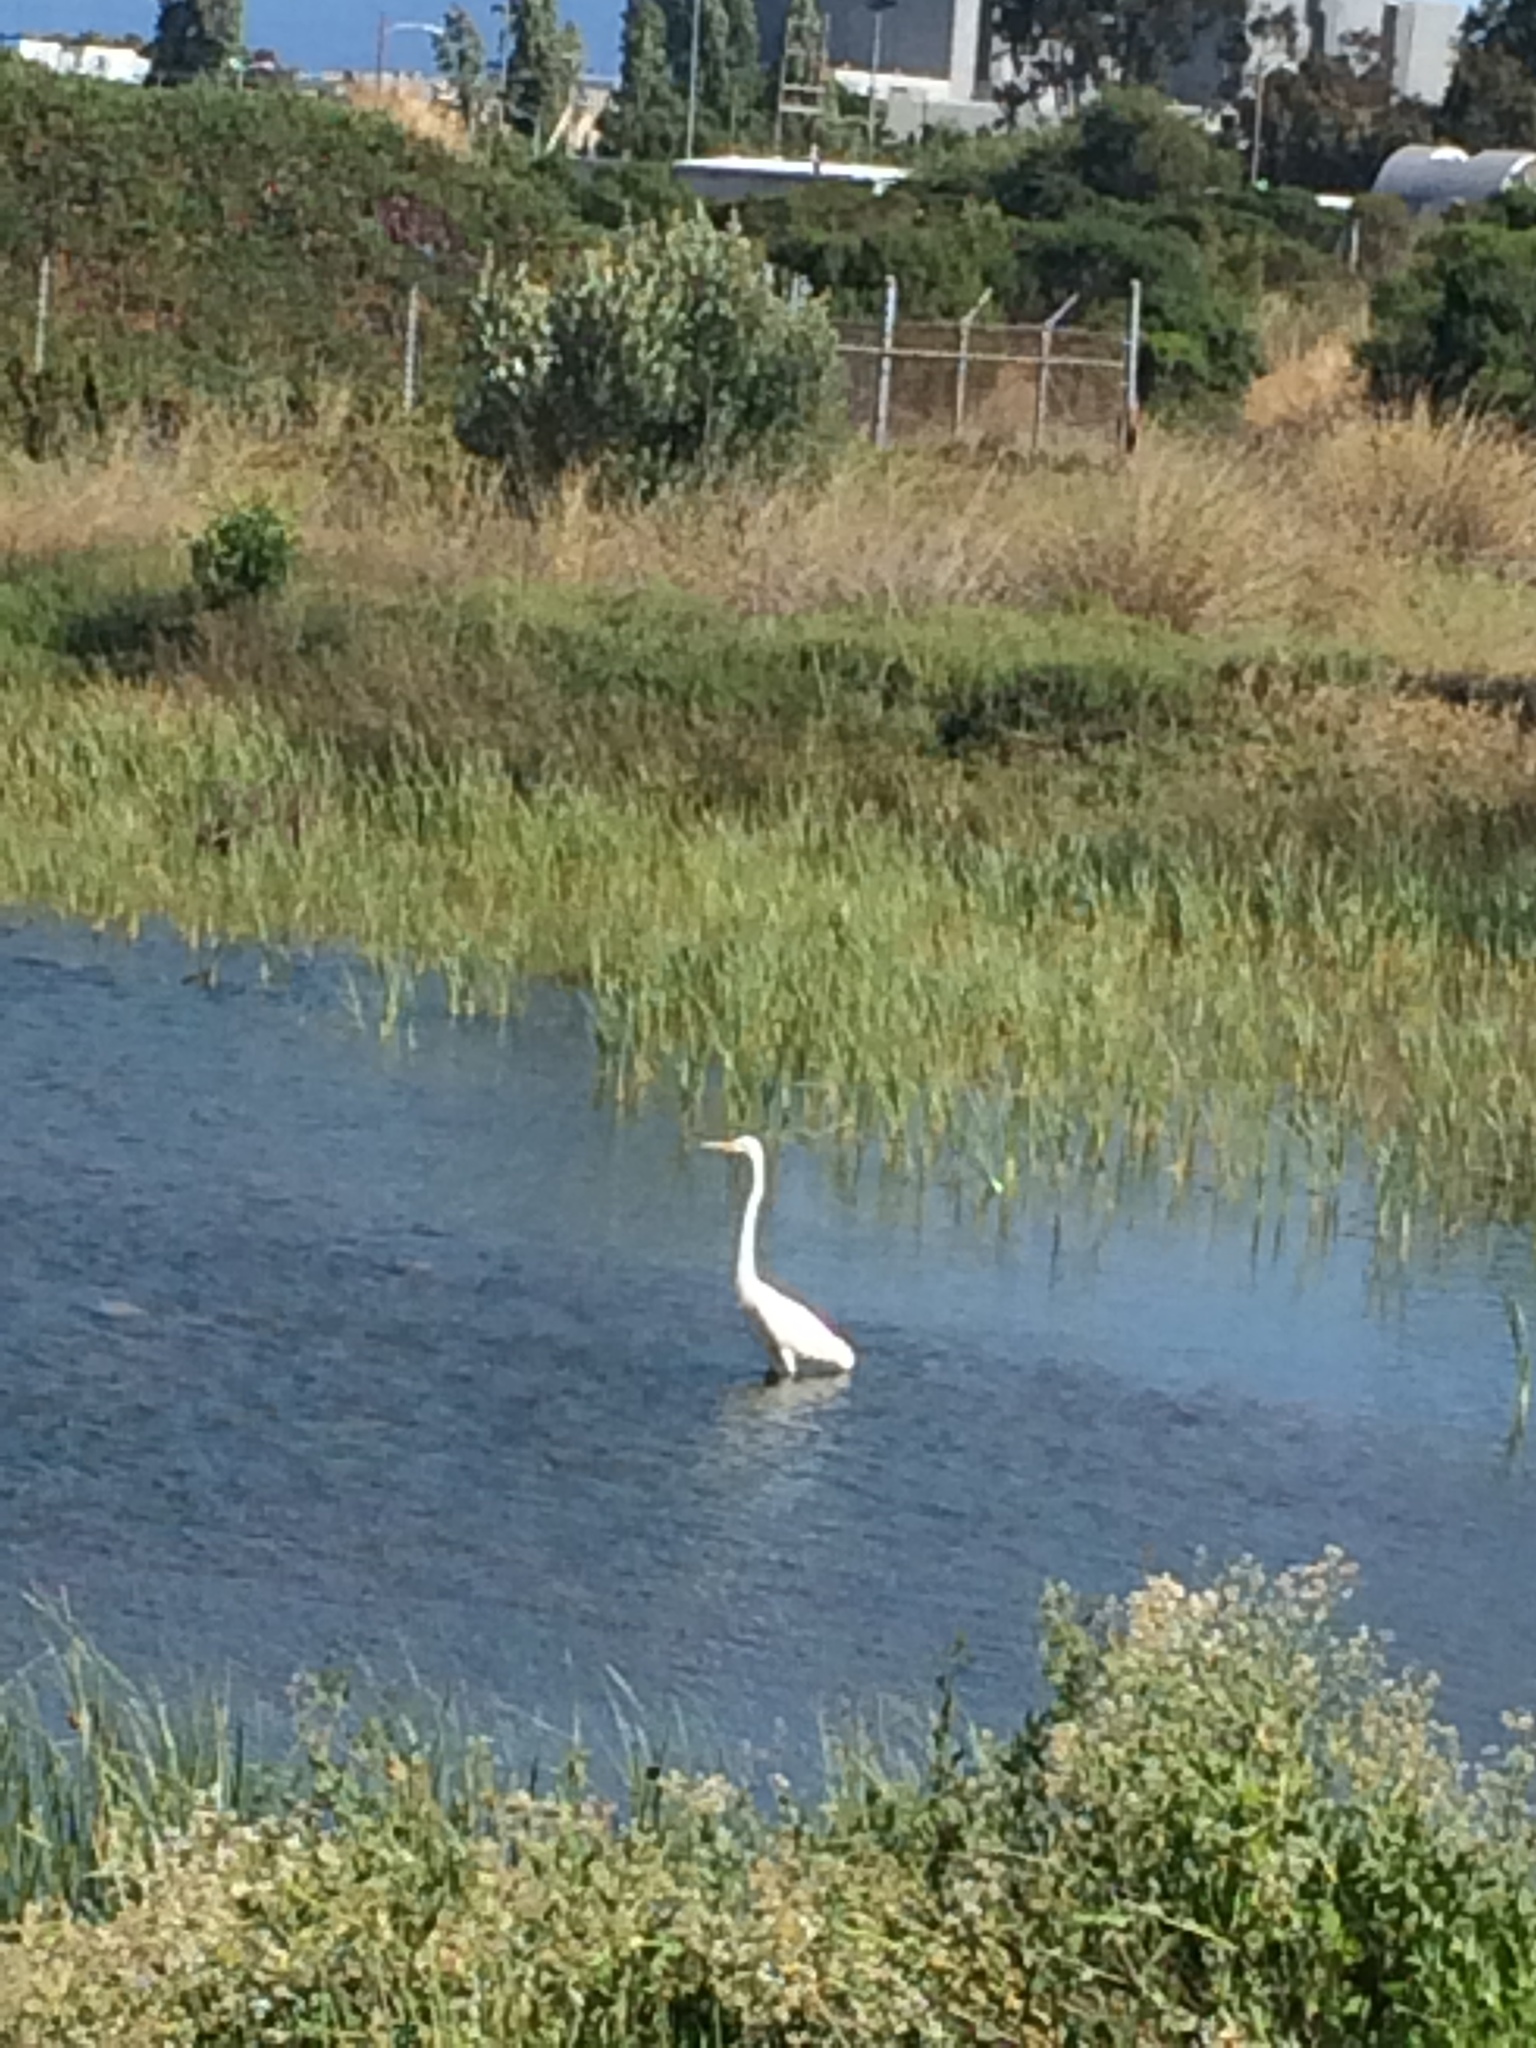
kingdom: Animalia
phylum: Chordata
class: Aves
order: Pelecaniformes
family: Ardeidae
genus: Ardea
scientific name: Ardea alba
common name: Great egret
